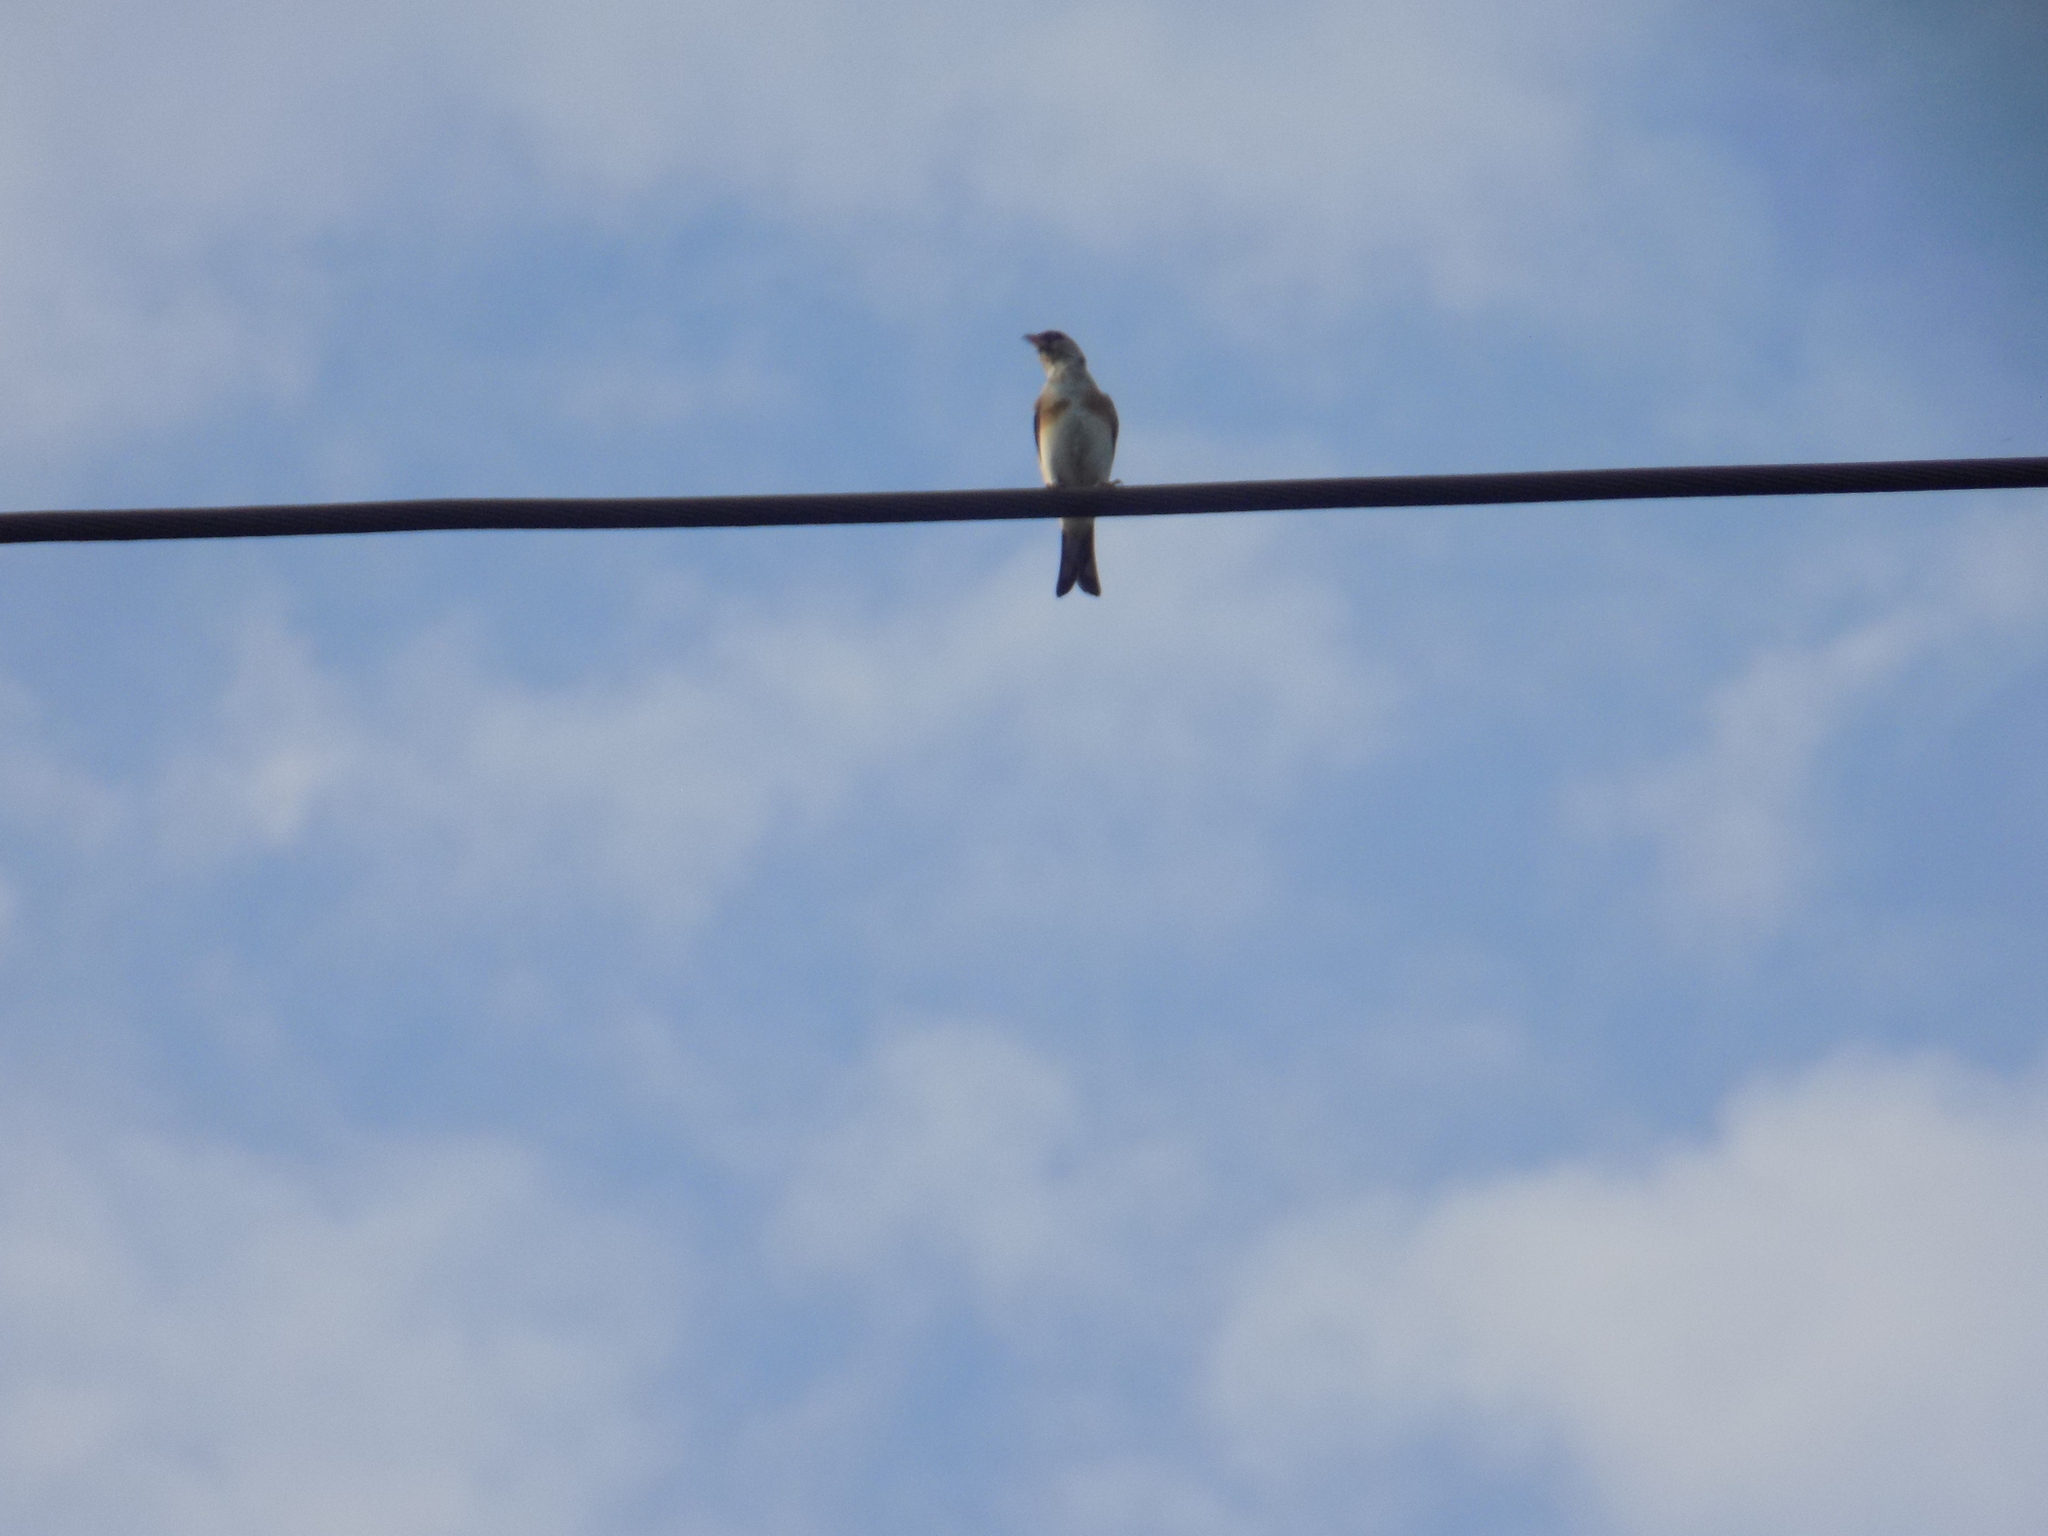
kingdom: Animalia
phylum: Chordata
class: Aves
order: Passeriformes
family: Fringillidae
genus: Carduelis
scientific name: Carduelis carduelis
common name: European goldfinch
